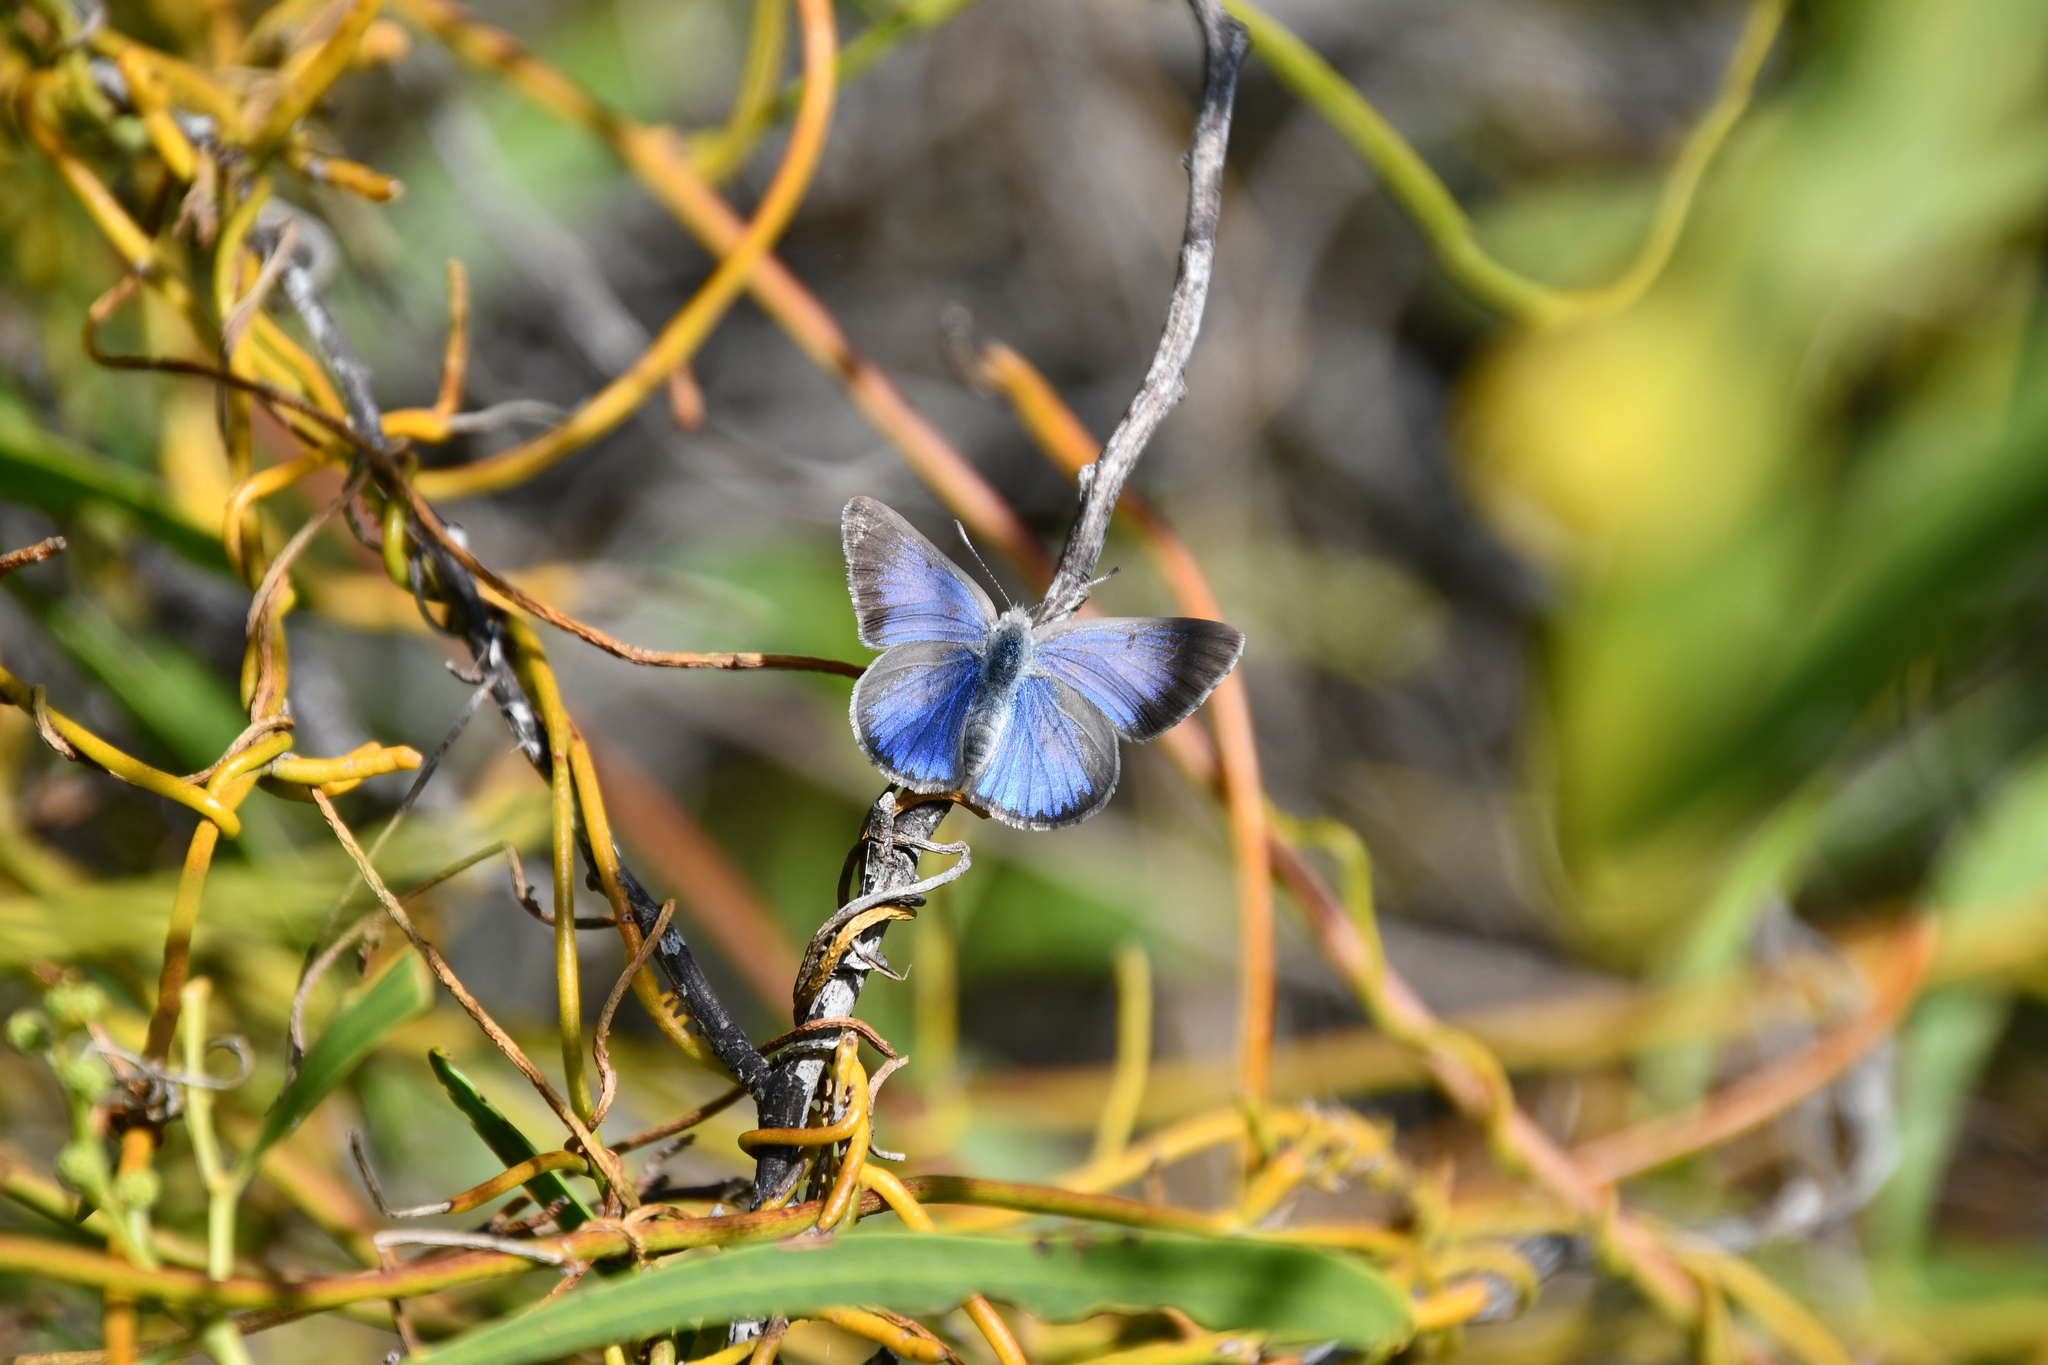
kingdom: Animalia
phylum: Arthropoda
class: Insecta
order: Lepidoptera
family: Lycaenidae
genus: Candalides
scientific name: Candalides
